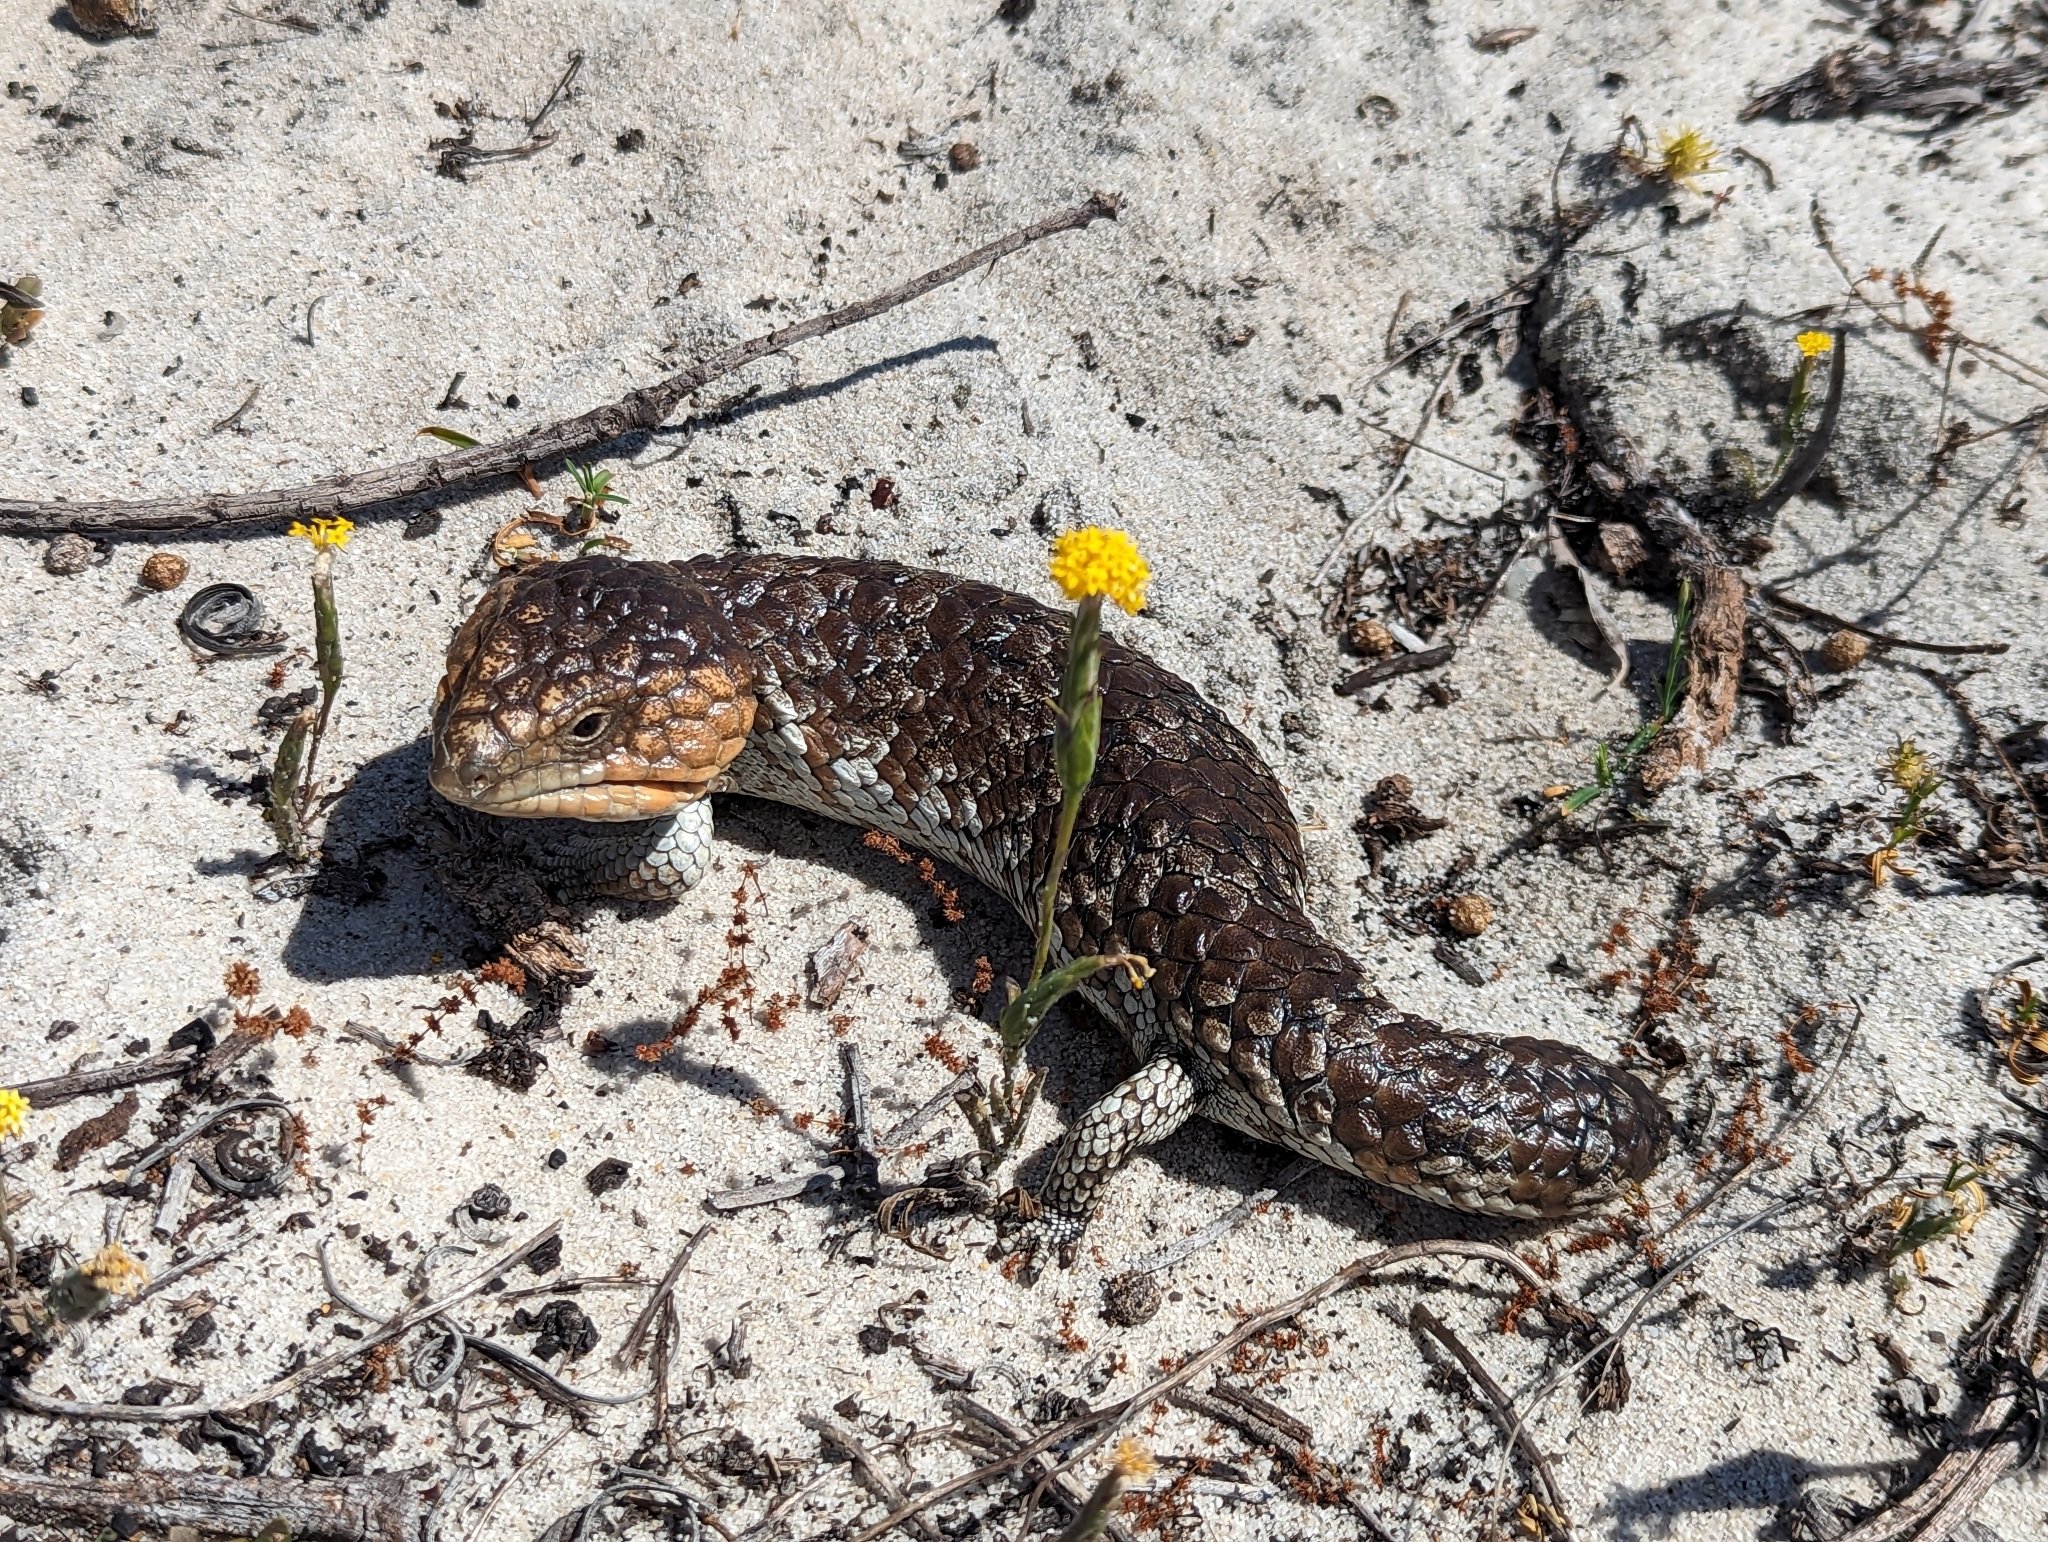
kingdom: Animalia
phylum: Chordata
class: Squamata
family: Scincidae
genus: Tiliqua
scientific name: Tiliqua rugosa
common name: Pinecone lizard
